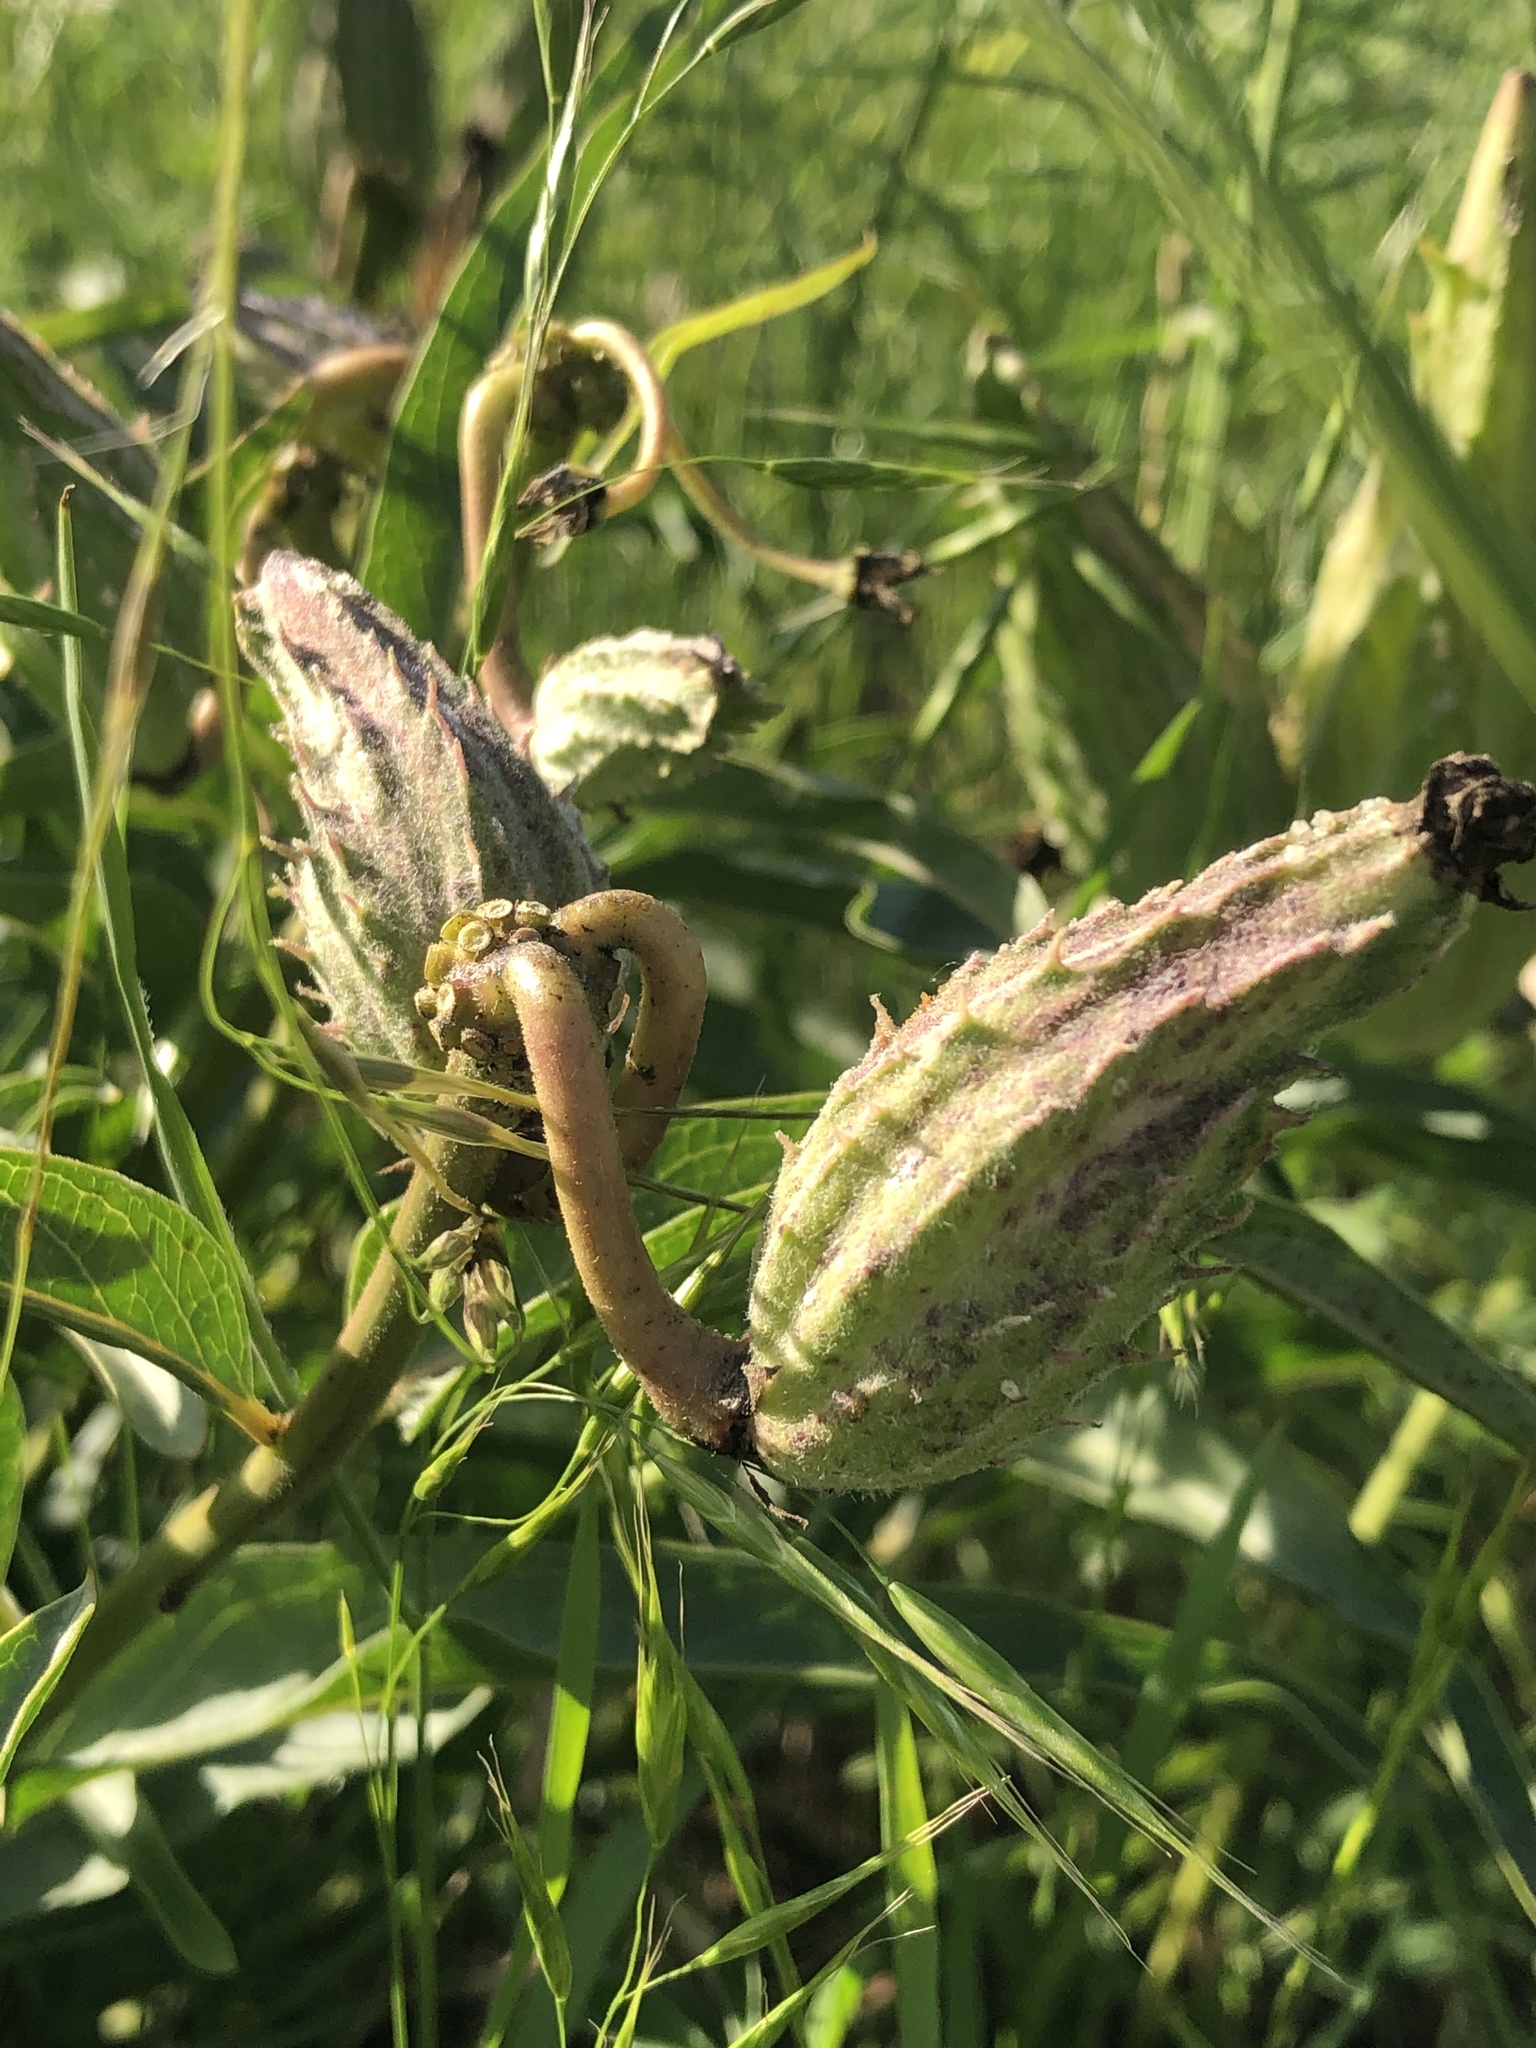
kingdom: Plantae
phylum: Tracheophyta
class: Magnoliopsida
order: Gentianales
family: Apocynaceae
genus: Asclepias
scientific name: Asclepias asperula
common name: Antelope horns
